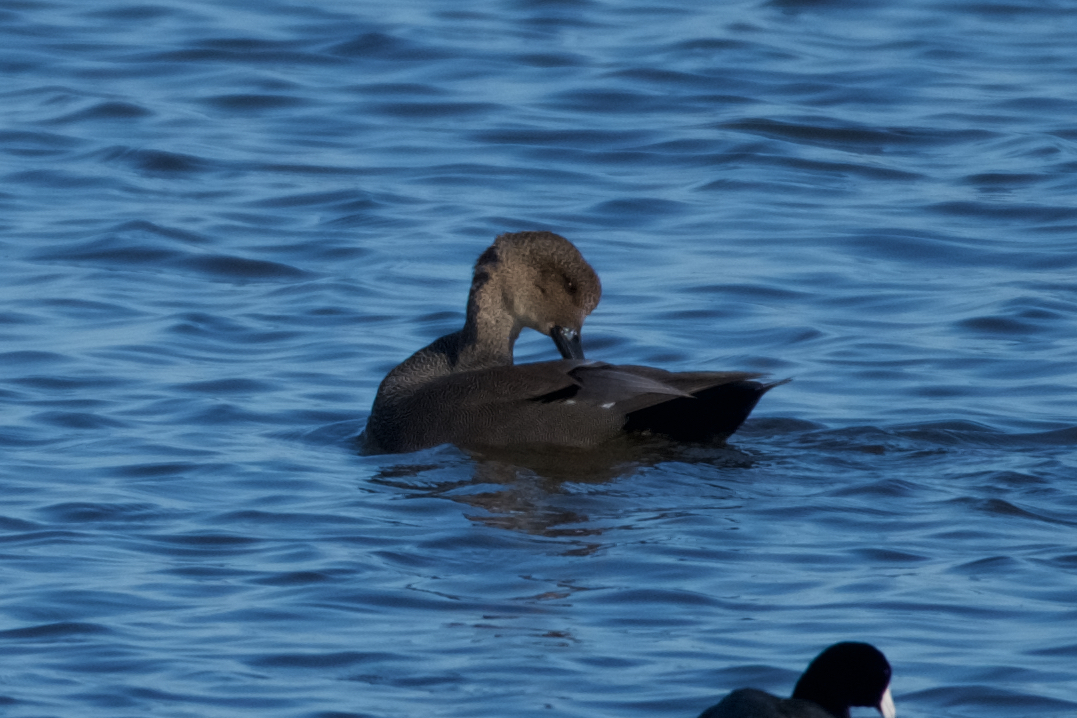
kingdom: Animalia
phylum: Chordata
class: Aves
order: Anseriformes
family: Anatidae
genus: Mareca
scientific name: Mareca strepera
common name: Gadwall
